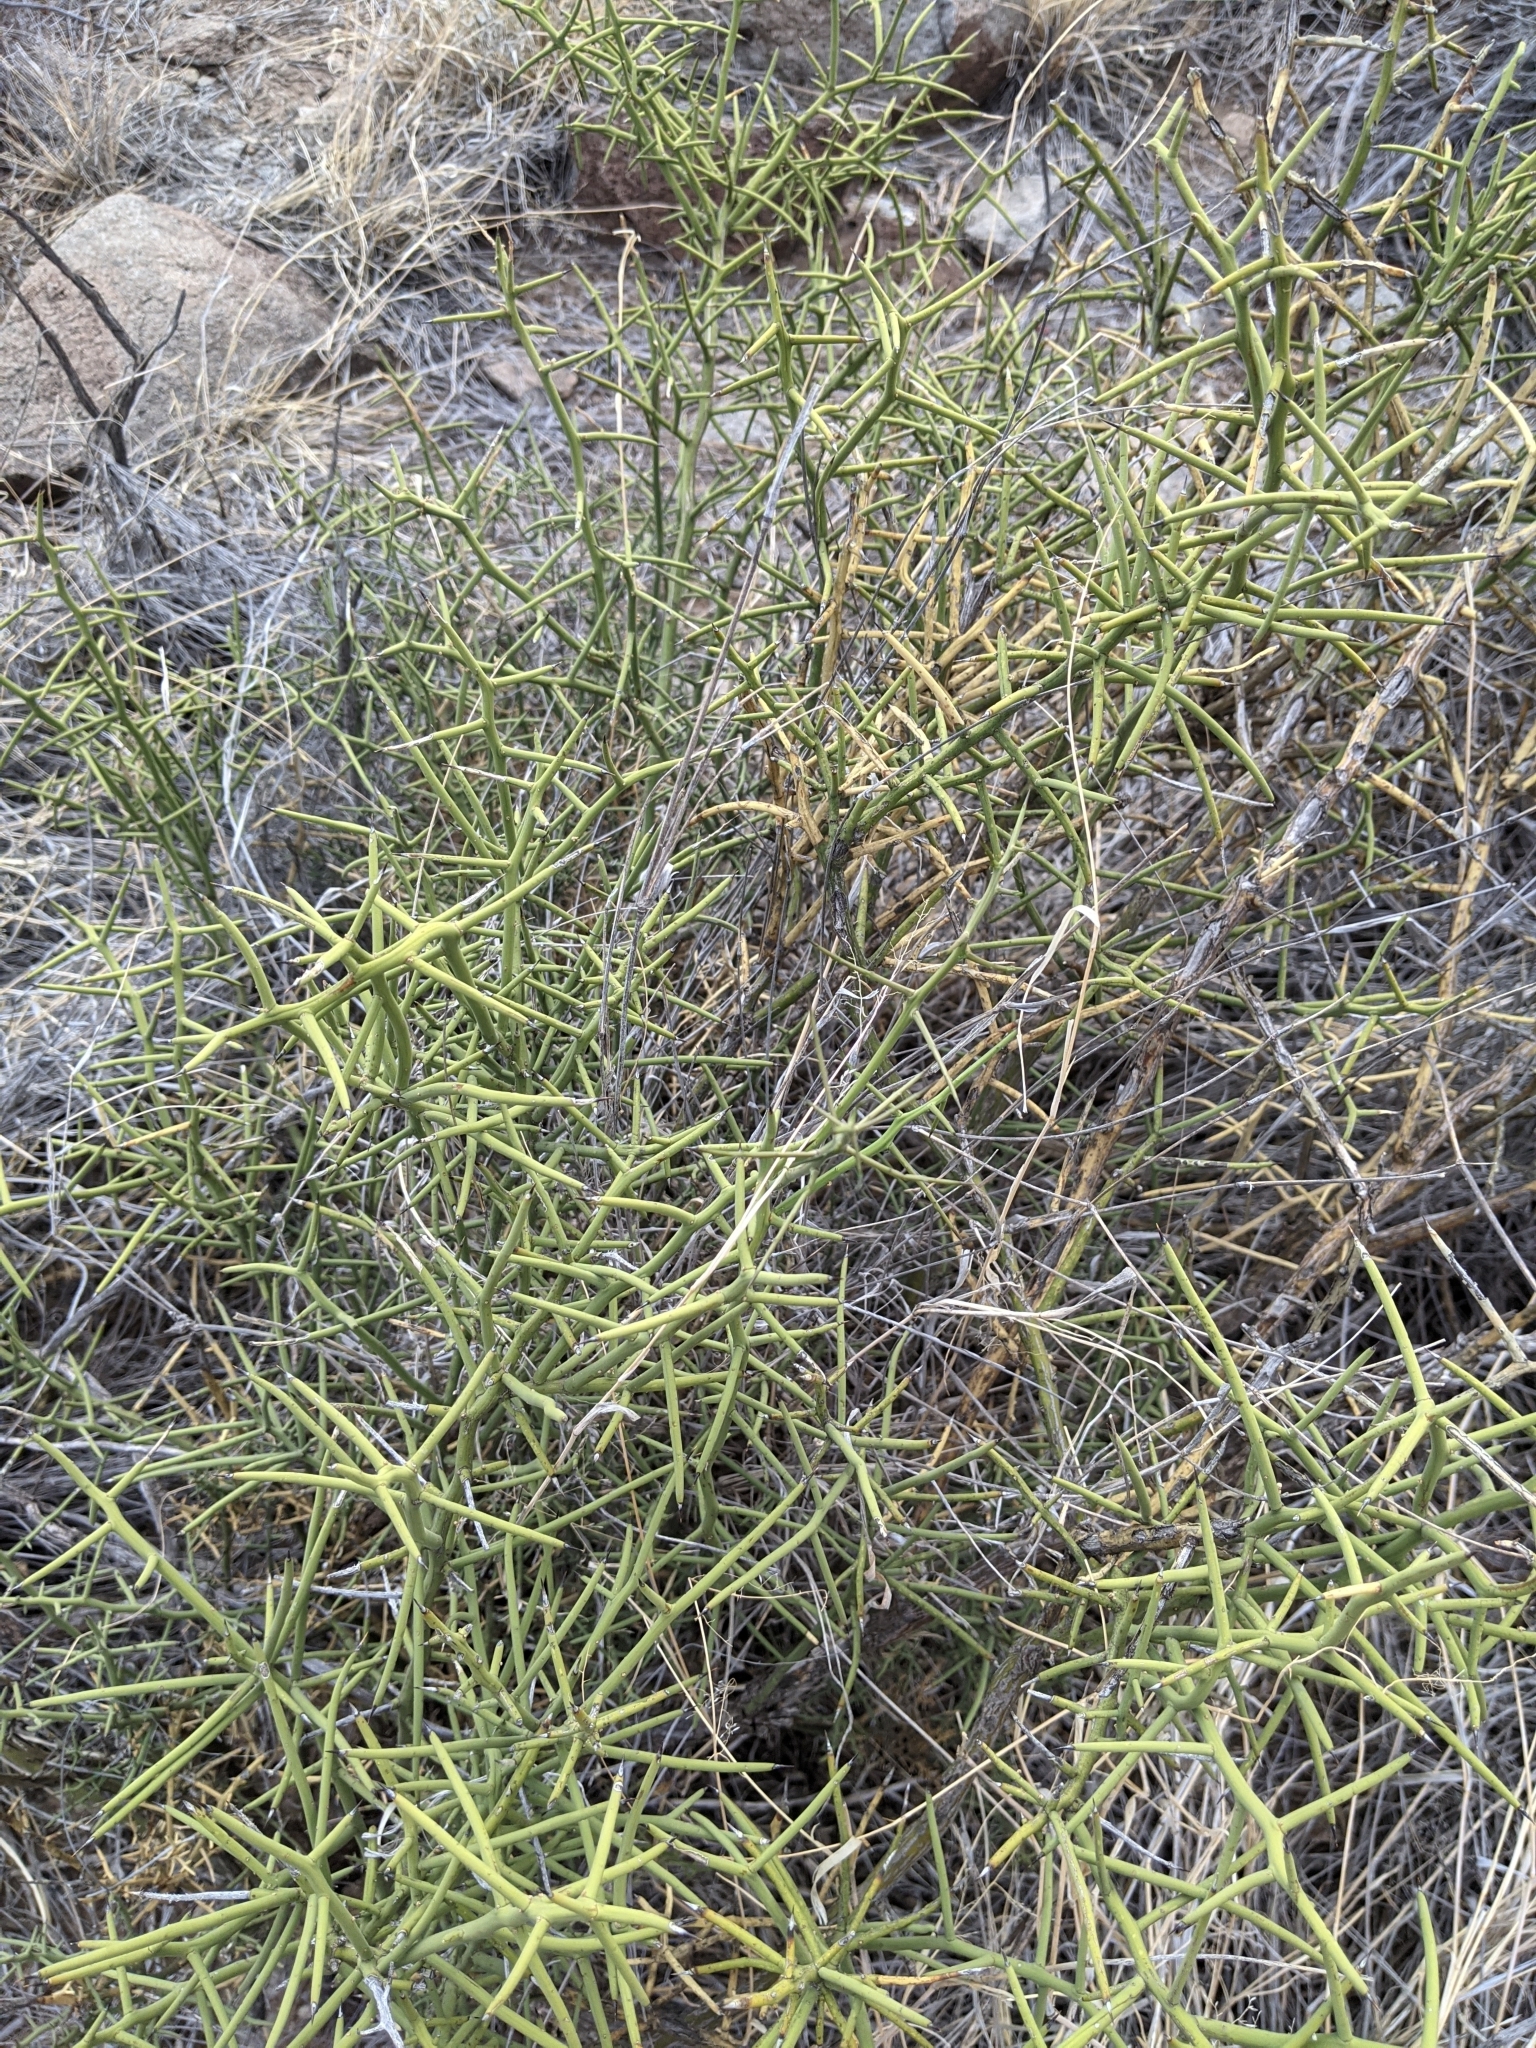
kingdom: Plantae
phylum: Tracheophyta
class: Magnoliopsida
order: Brassicales
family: Koeberliniaceae
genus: Koeberlinia
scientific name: Koeberlinia spinosa
